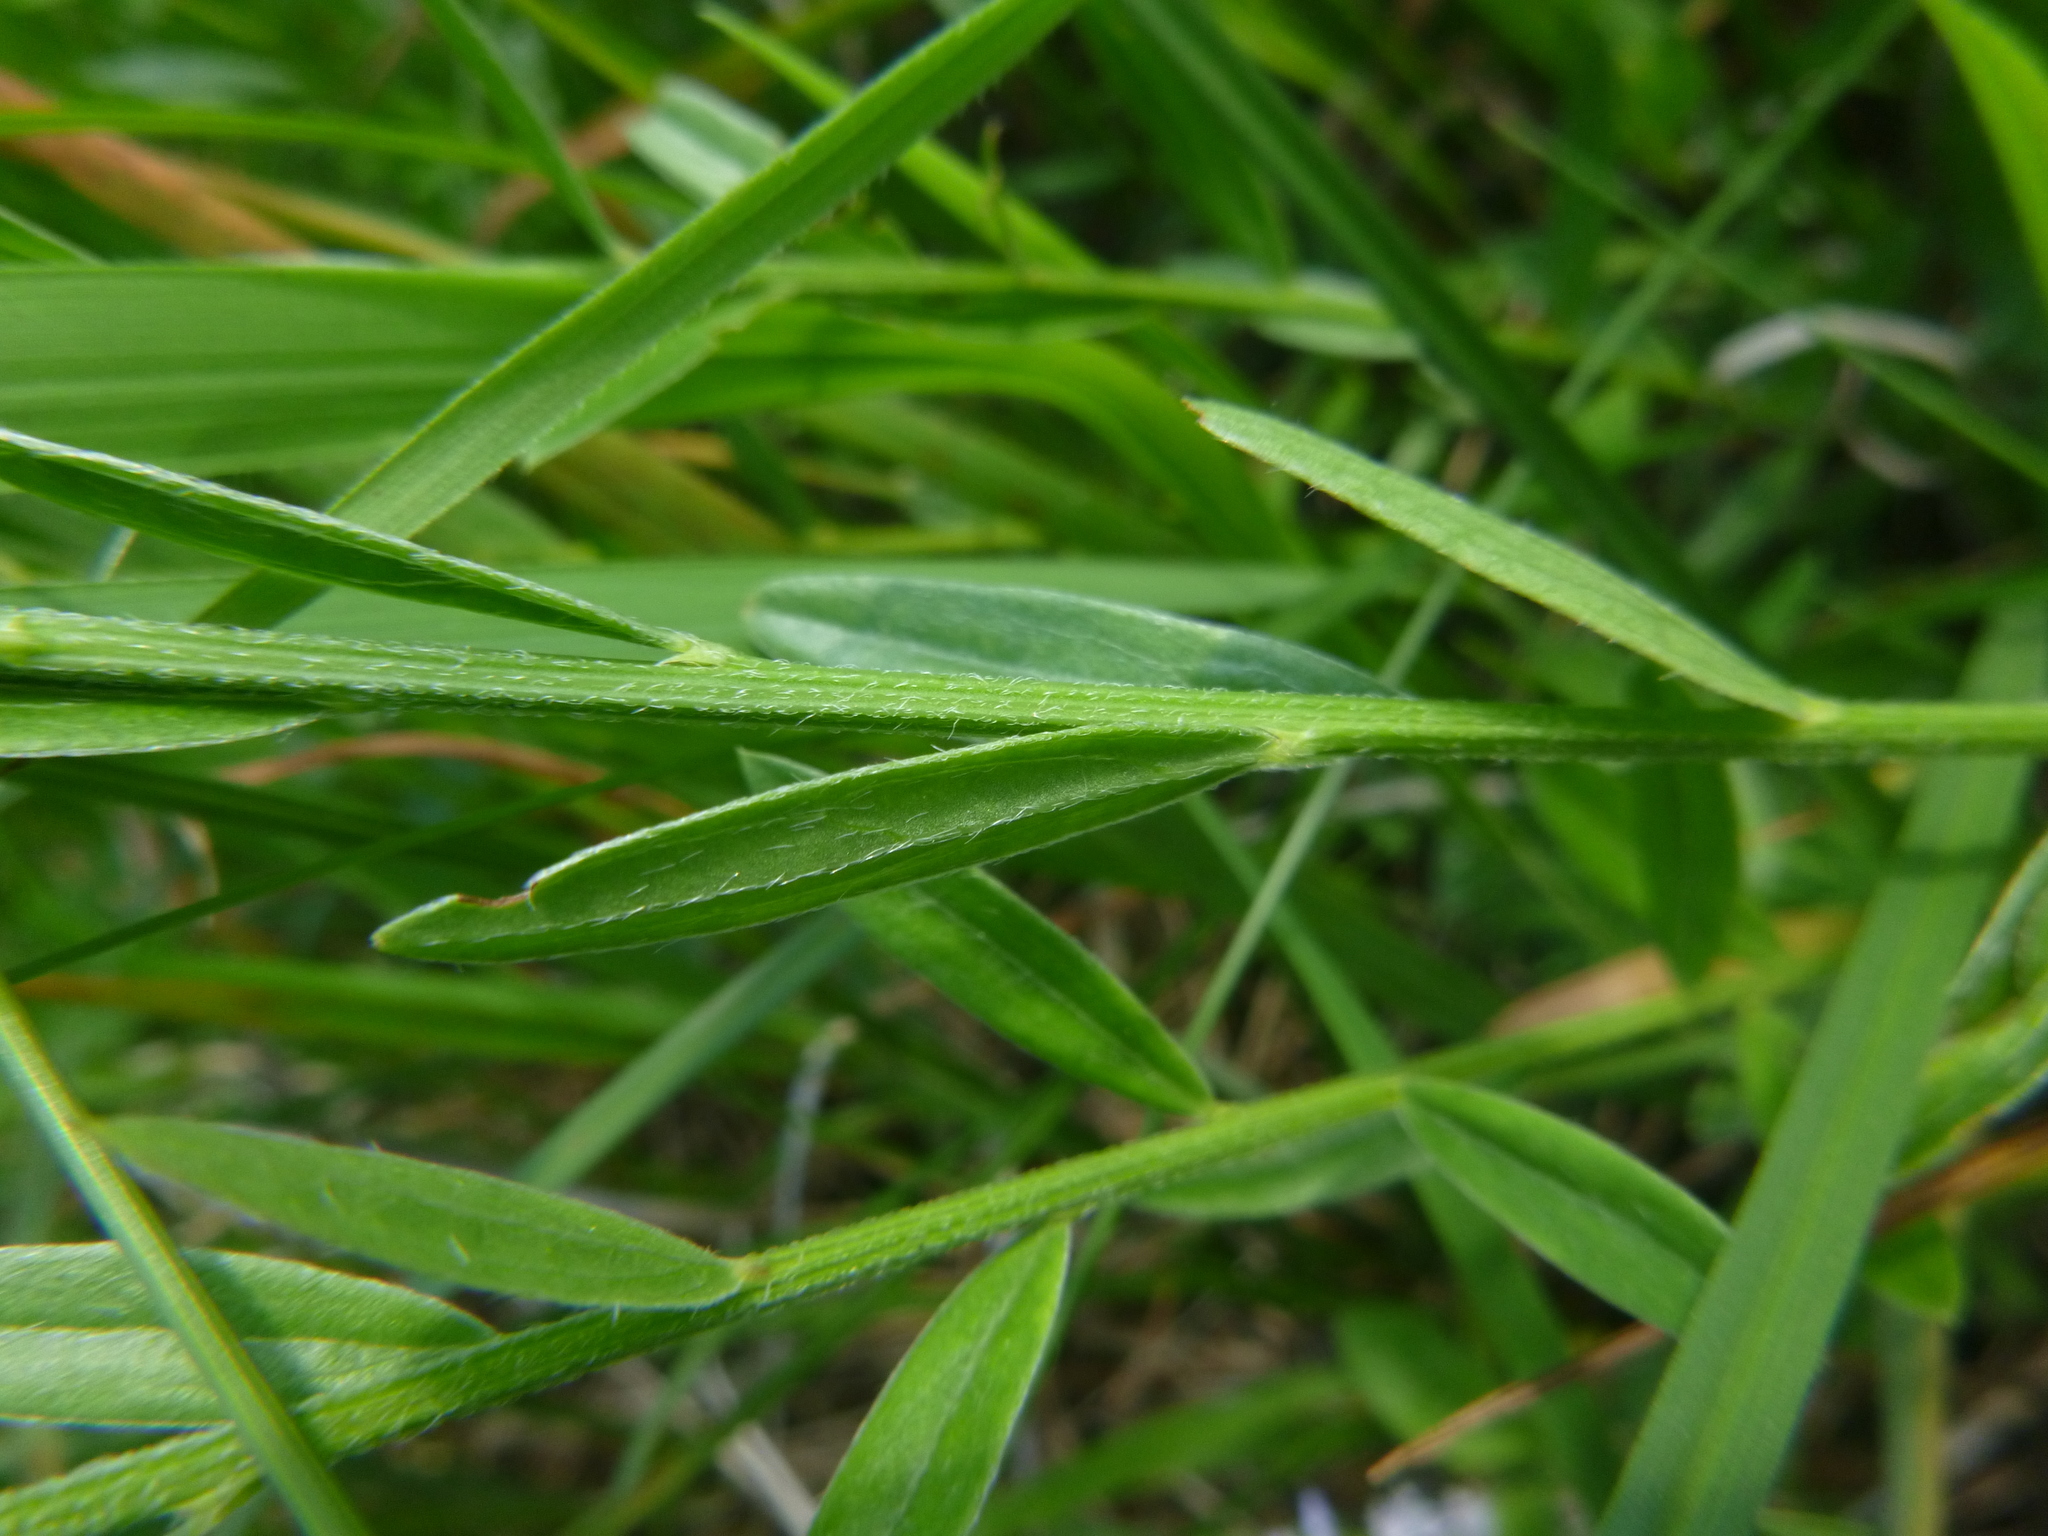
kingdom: Plantae
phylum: Tracheophyta
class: Magnoliopsida
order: Fabales
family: Fabaceae
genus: Genista
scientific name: Genista tinctoria
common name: Dyer's greenweed
